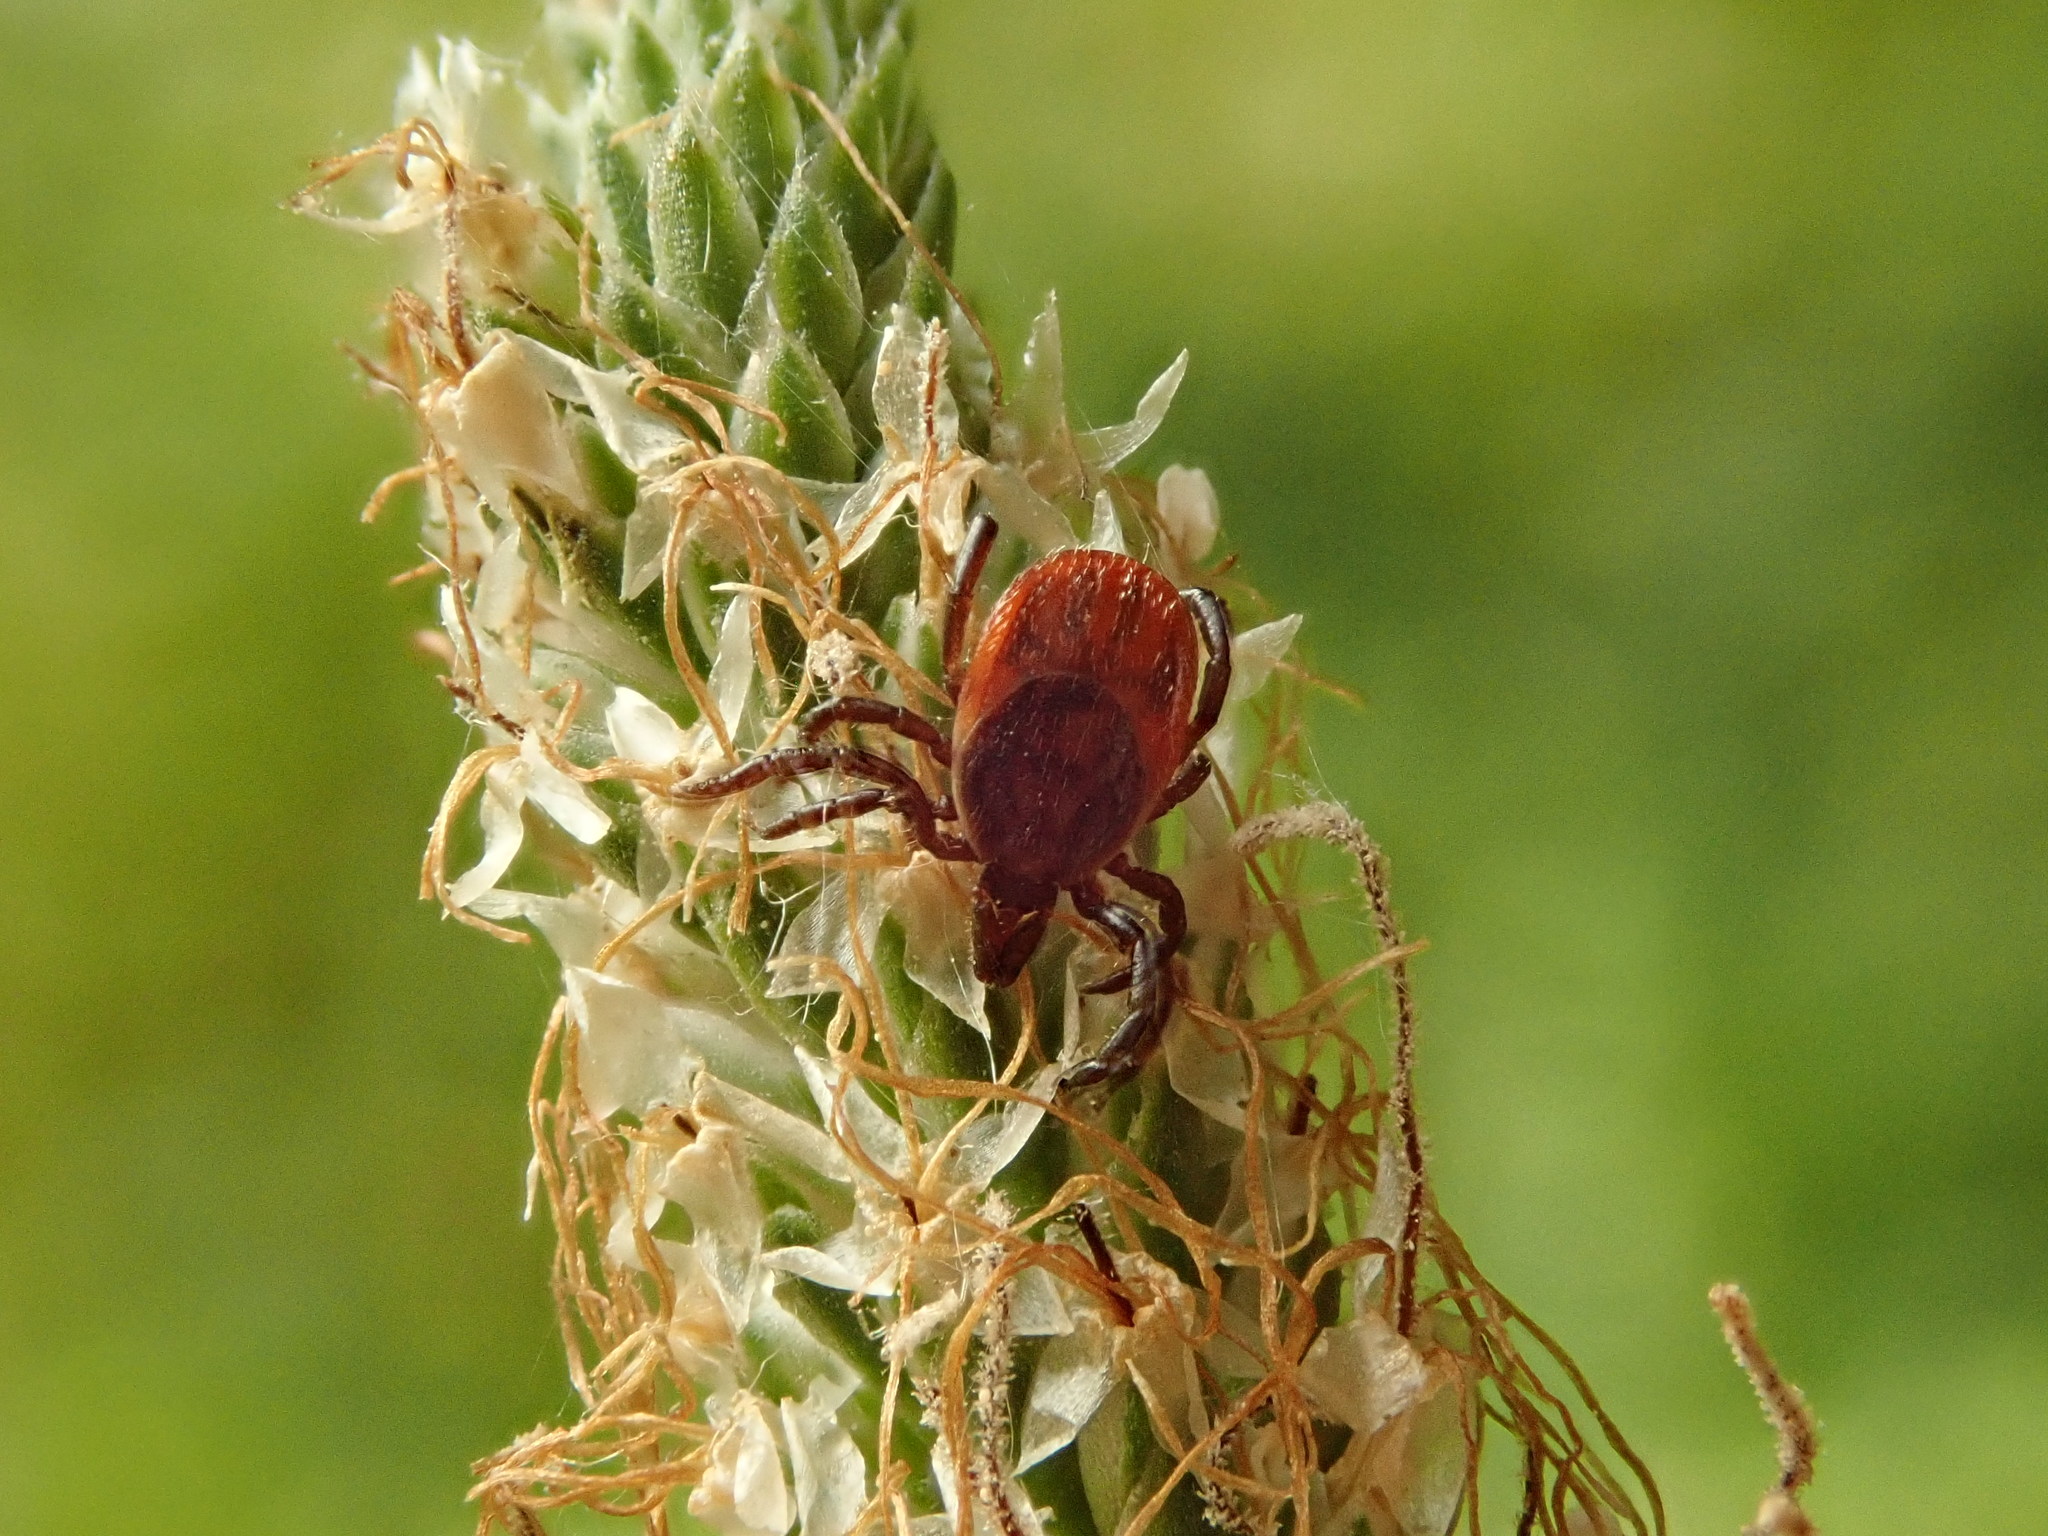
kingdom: Animalia
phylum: Arthropoda
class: Arachnida
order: Ixodida
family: Ixodidae
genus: Ixodes
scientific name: Ixodes ricinus
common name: Castor bean tick
